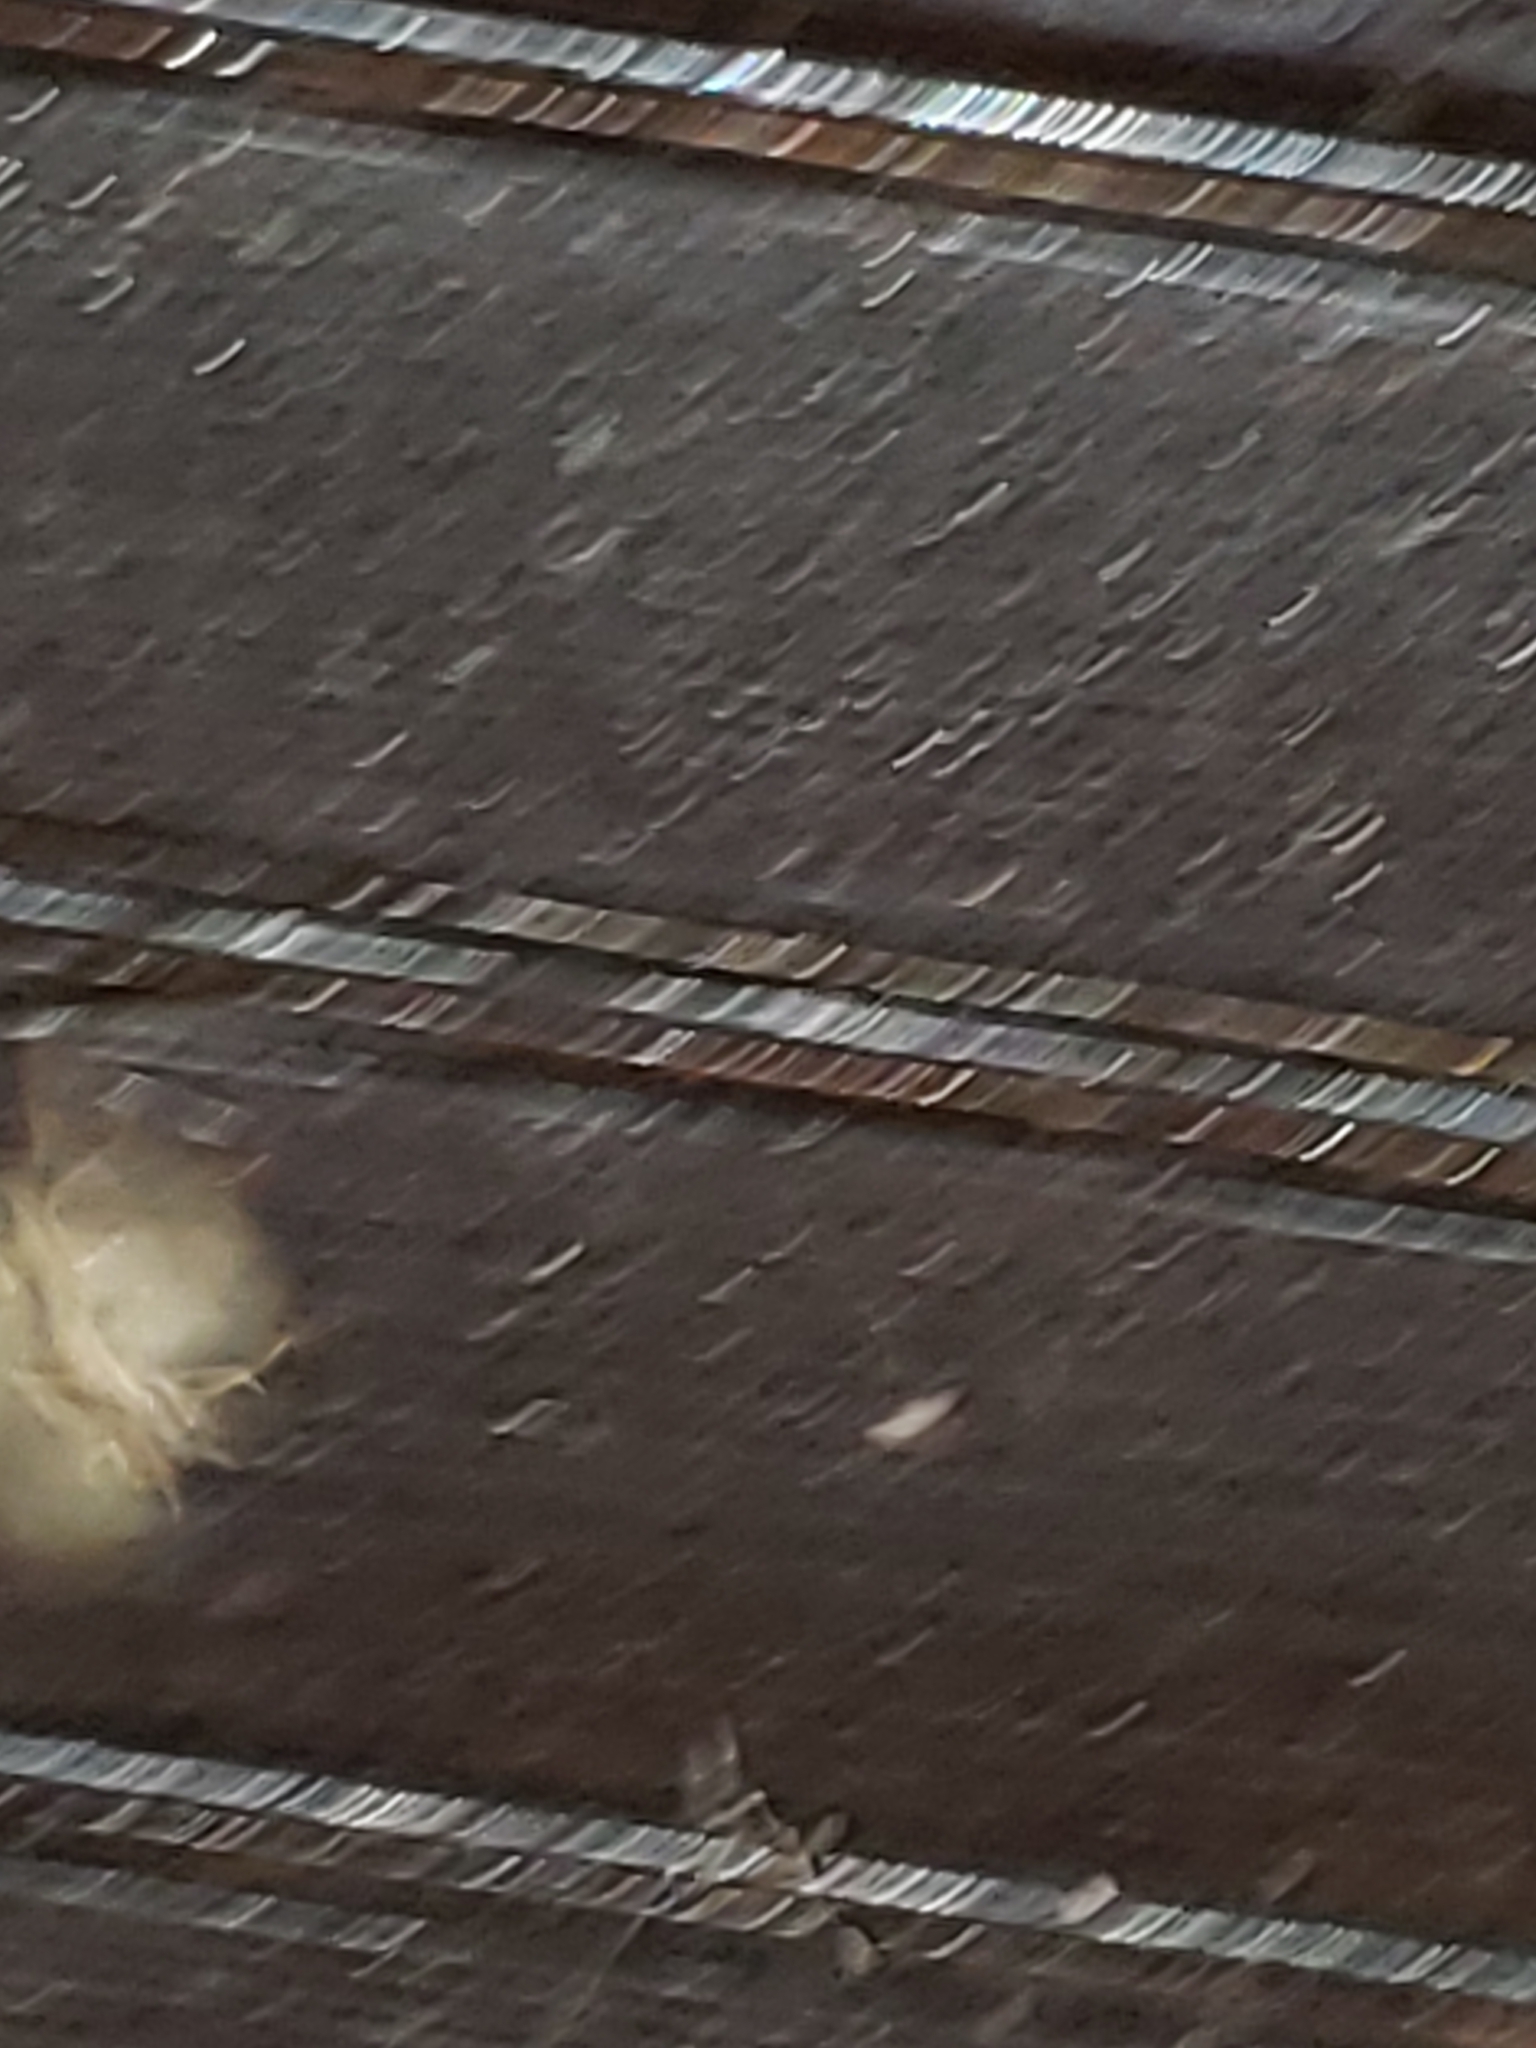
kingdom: Animalia
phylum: Arthropoda
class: Insecta
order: Lepidoptera
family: Erebidae
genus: Rivula
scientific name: Rivula propinqualis
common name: Spotted grass moth
